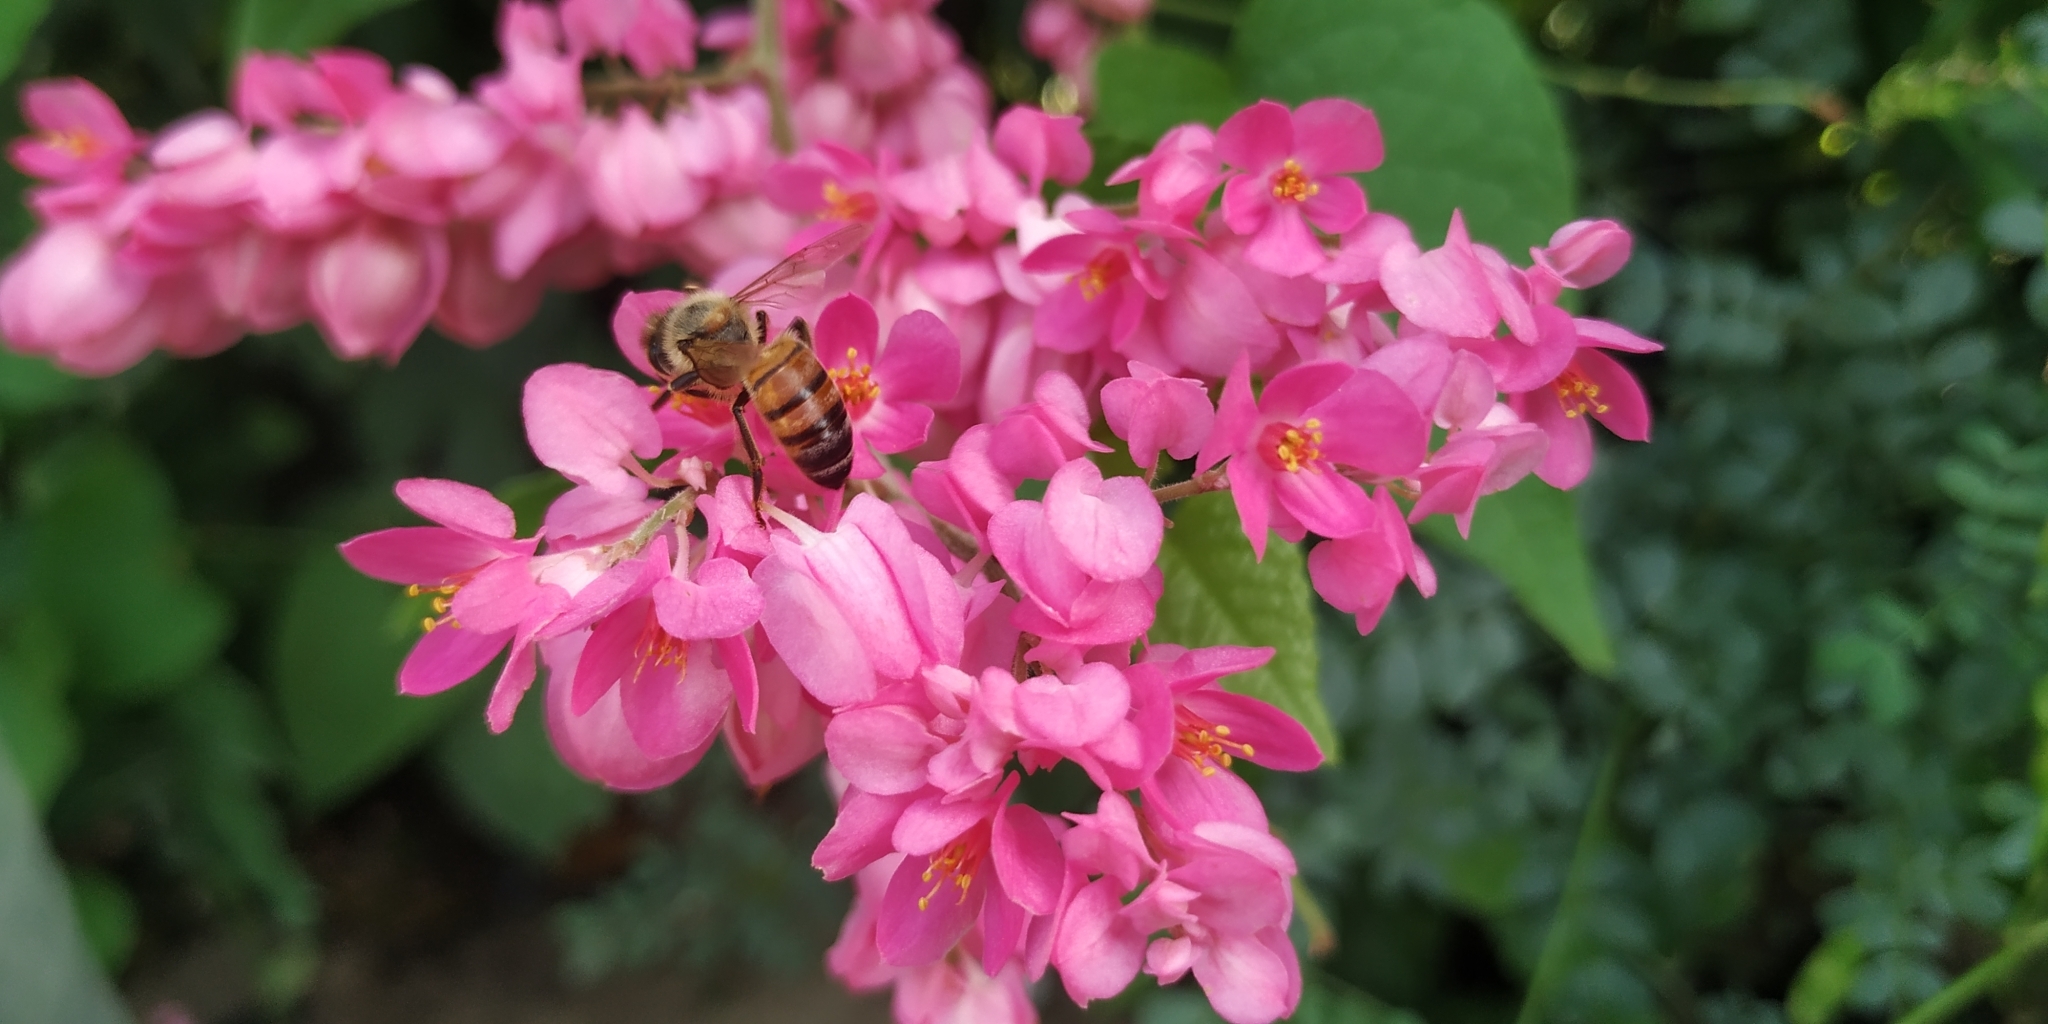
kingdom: Animalia
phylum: Arthropoda
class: Insecta
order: Hymenoptera
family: Apidae
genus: Apis
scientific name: Apis mellifera
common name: Honey bee
